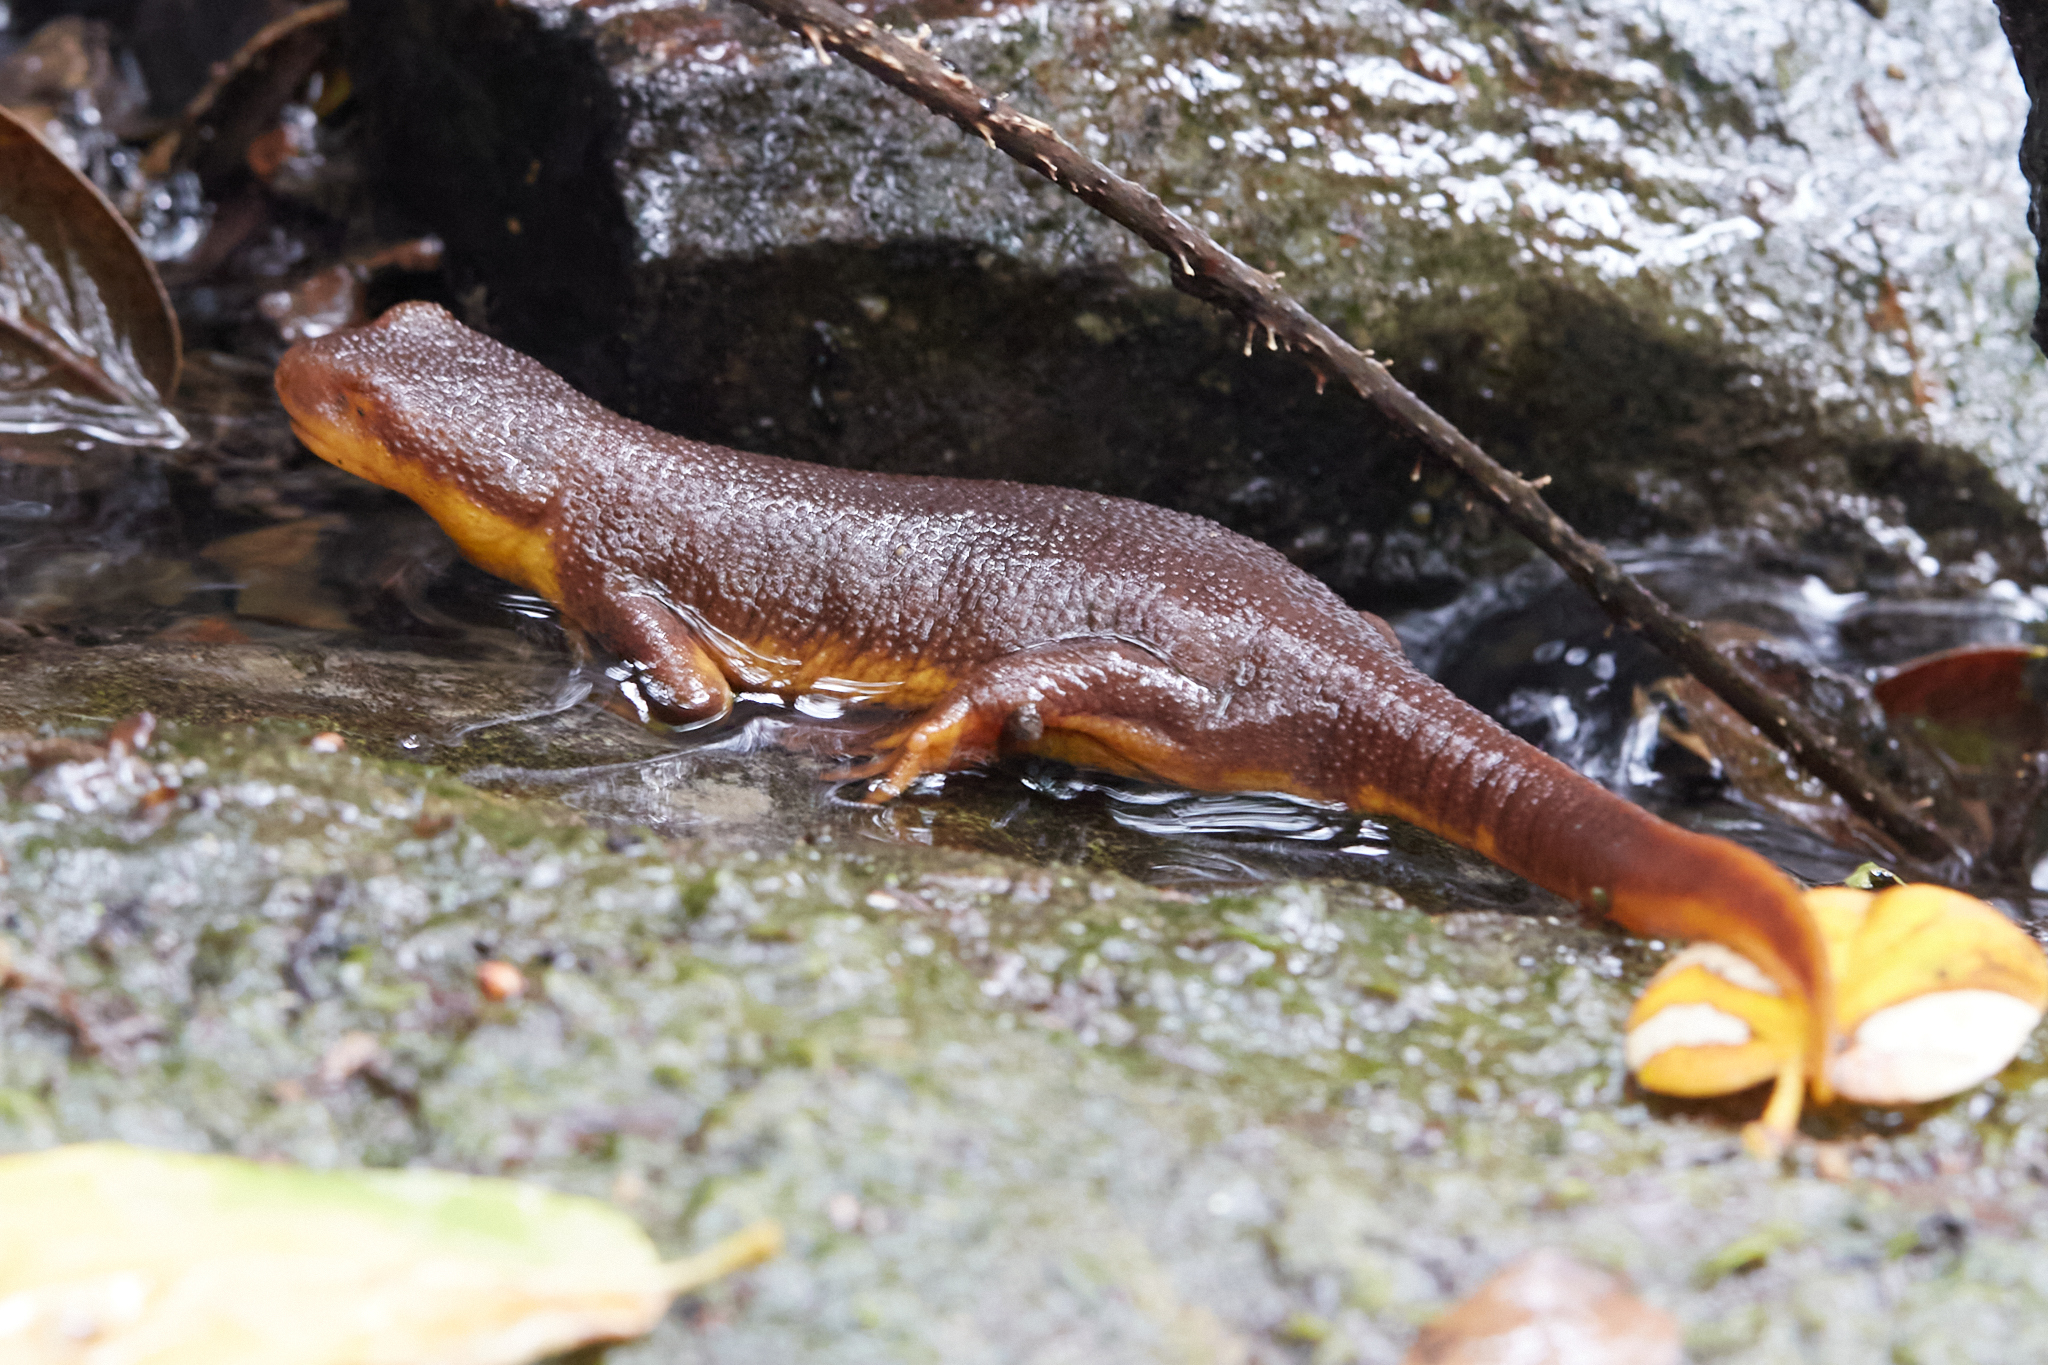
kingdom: Animalia
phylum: Chordata
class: Amphibia
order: Caudata
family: Salamandridae
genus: Taricha
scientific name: Taricha torosa
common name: California newt
